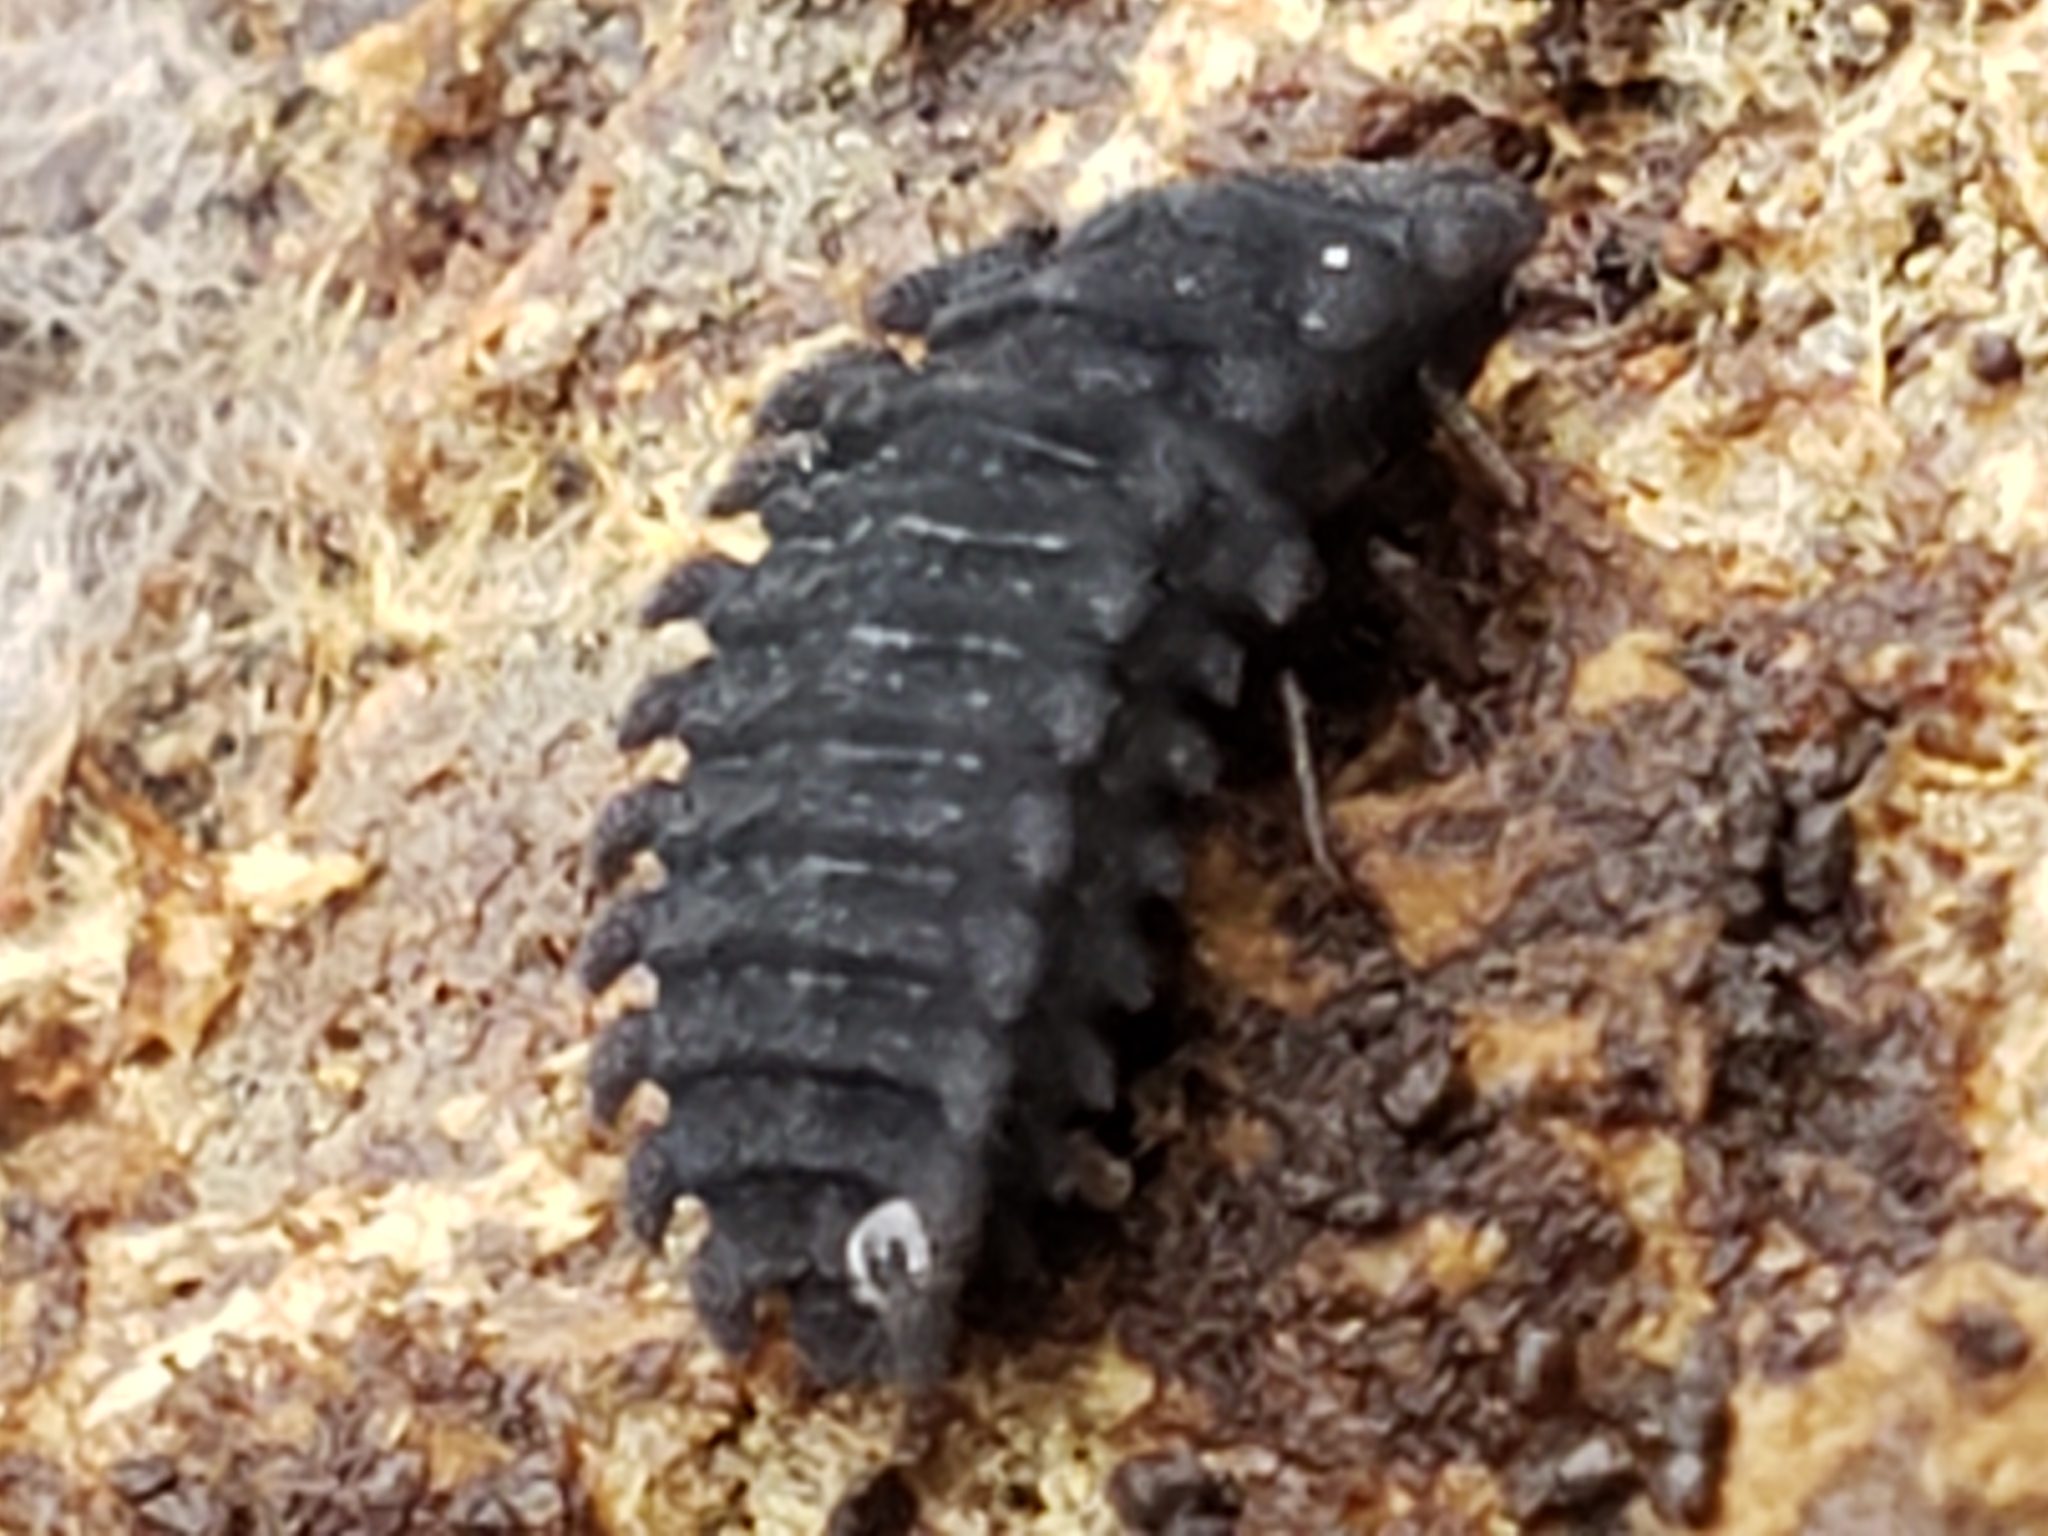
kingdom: Animalia
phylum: Arthropoda
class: Insecta
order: Coleoptera
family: Endomychidae
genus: Aphorista
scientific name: Aphorista vittata
